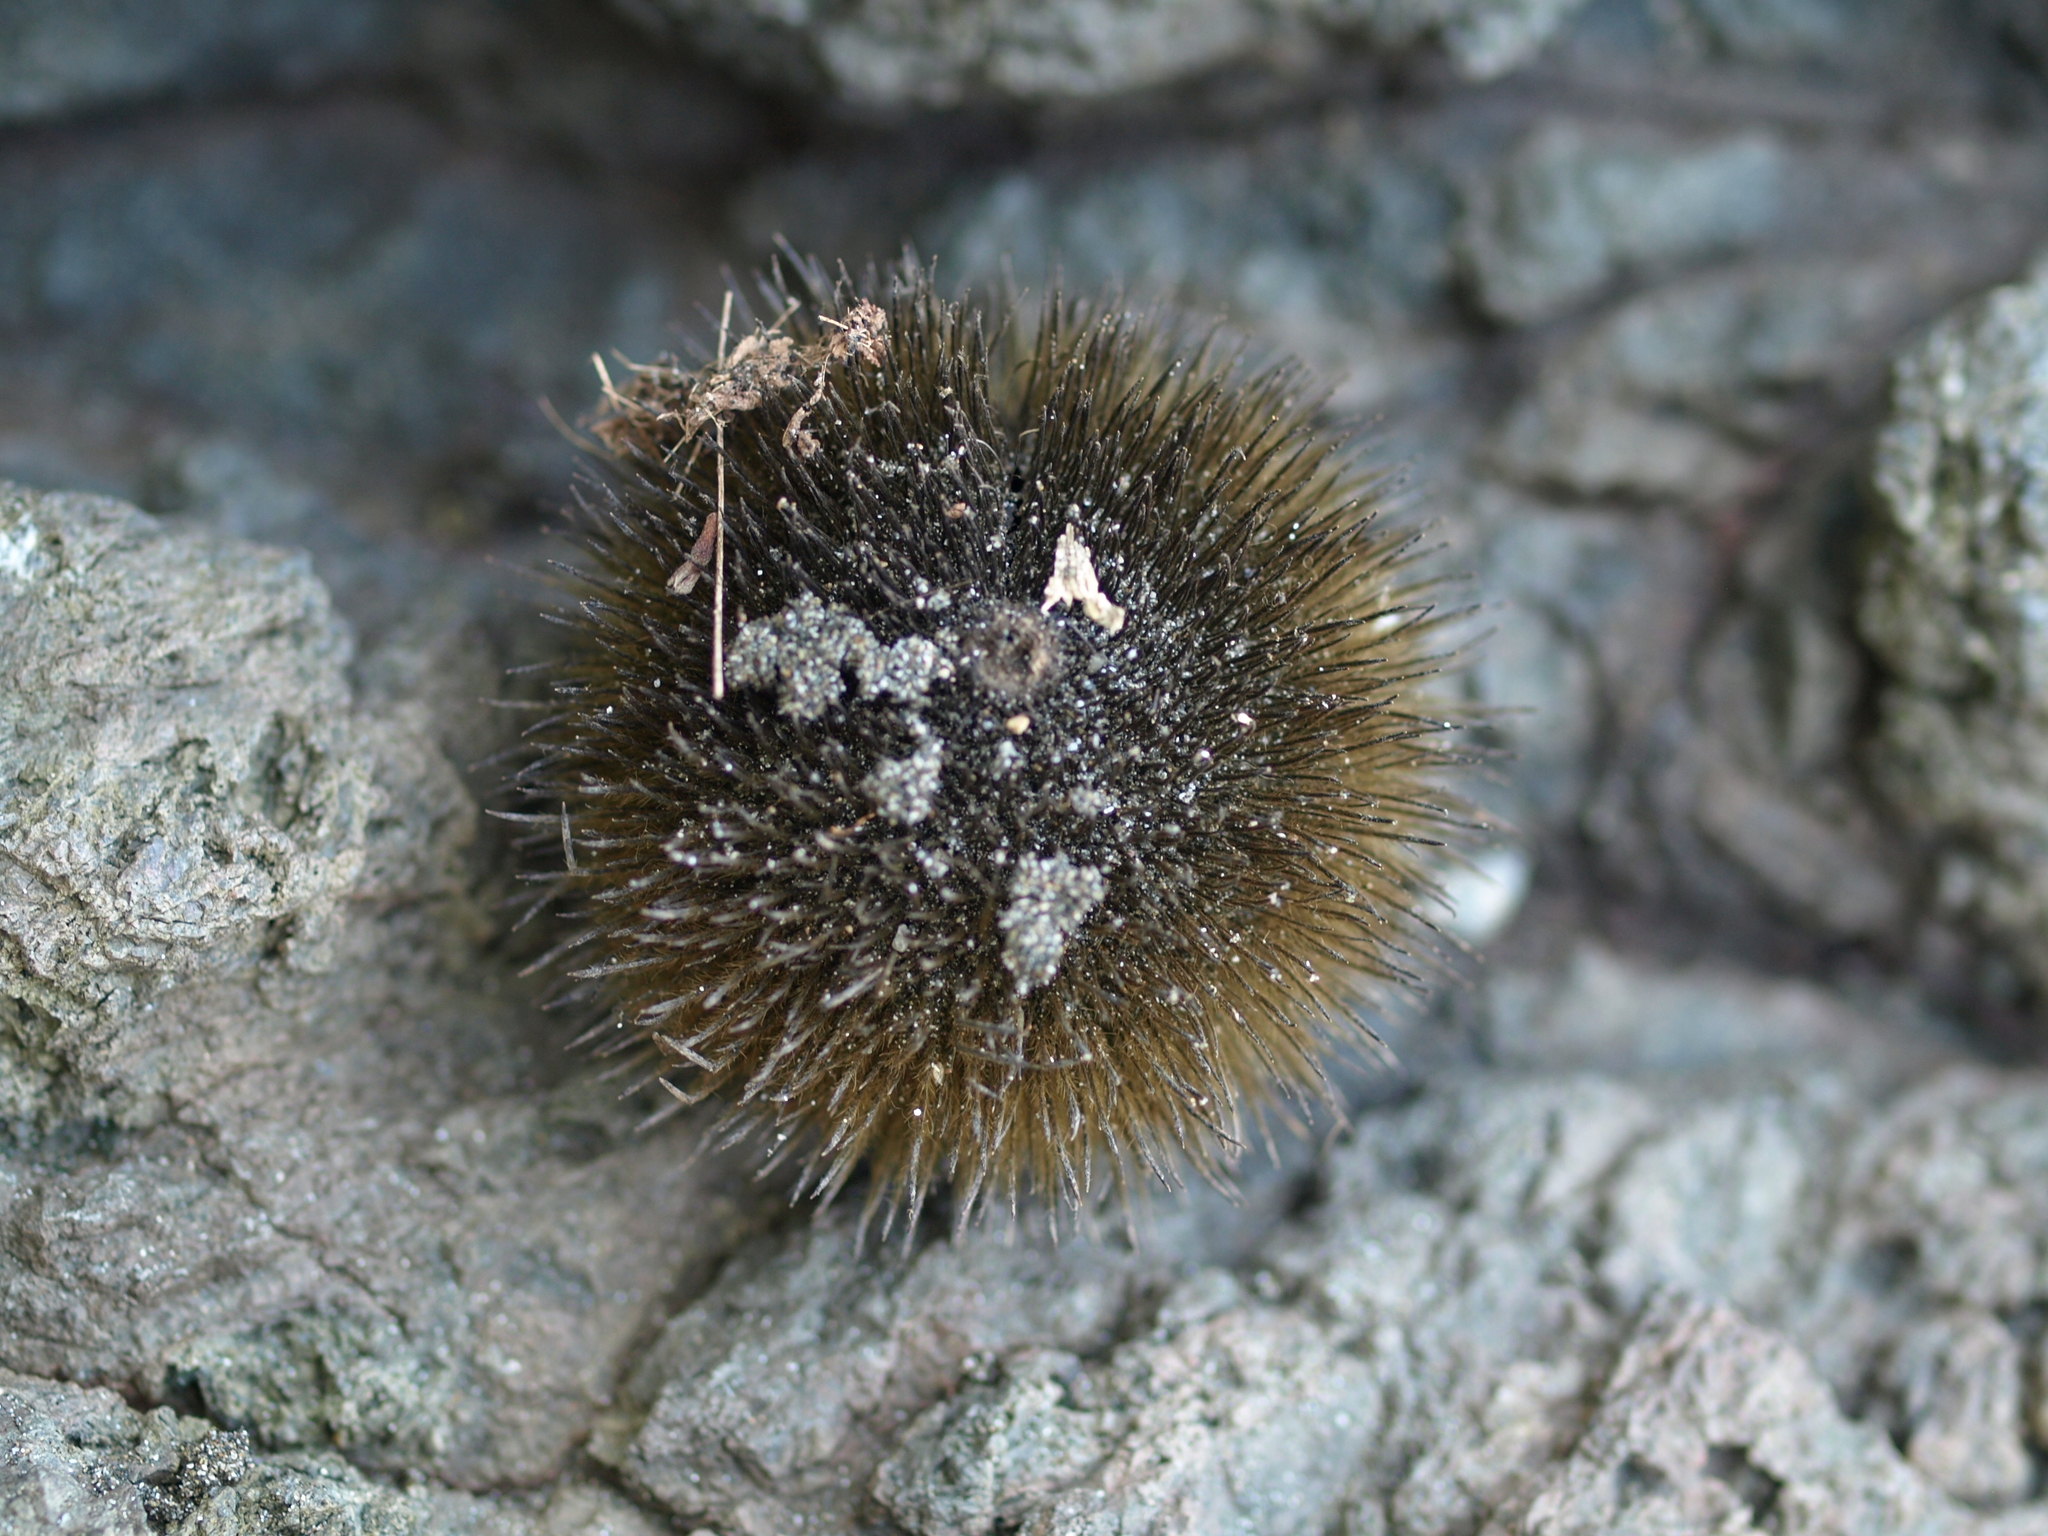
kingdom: Plantae
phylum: Tracheophyta
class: Magnoliopsida
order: Malvales
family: Malvaceae
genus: Apeiba
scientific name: Apeiba tibourbou
